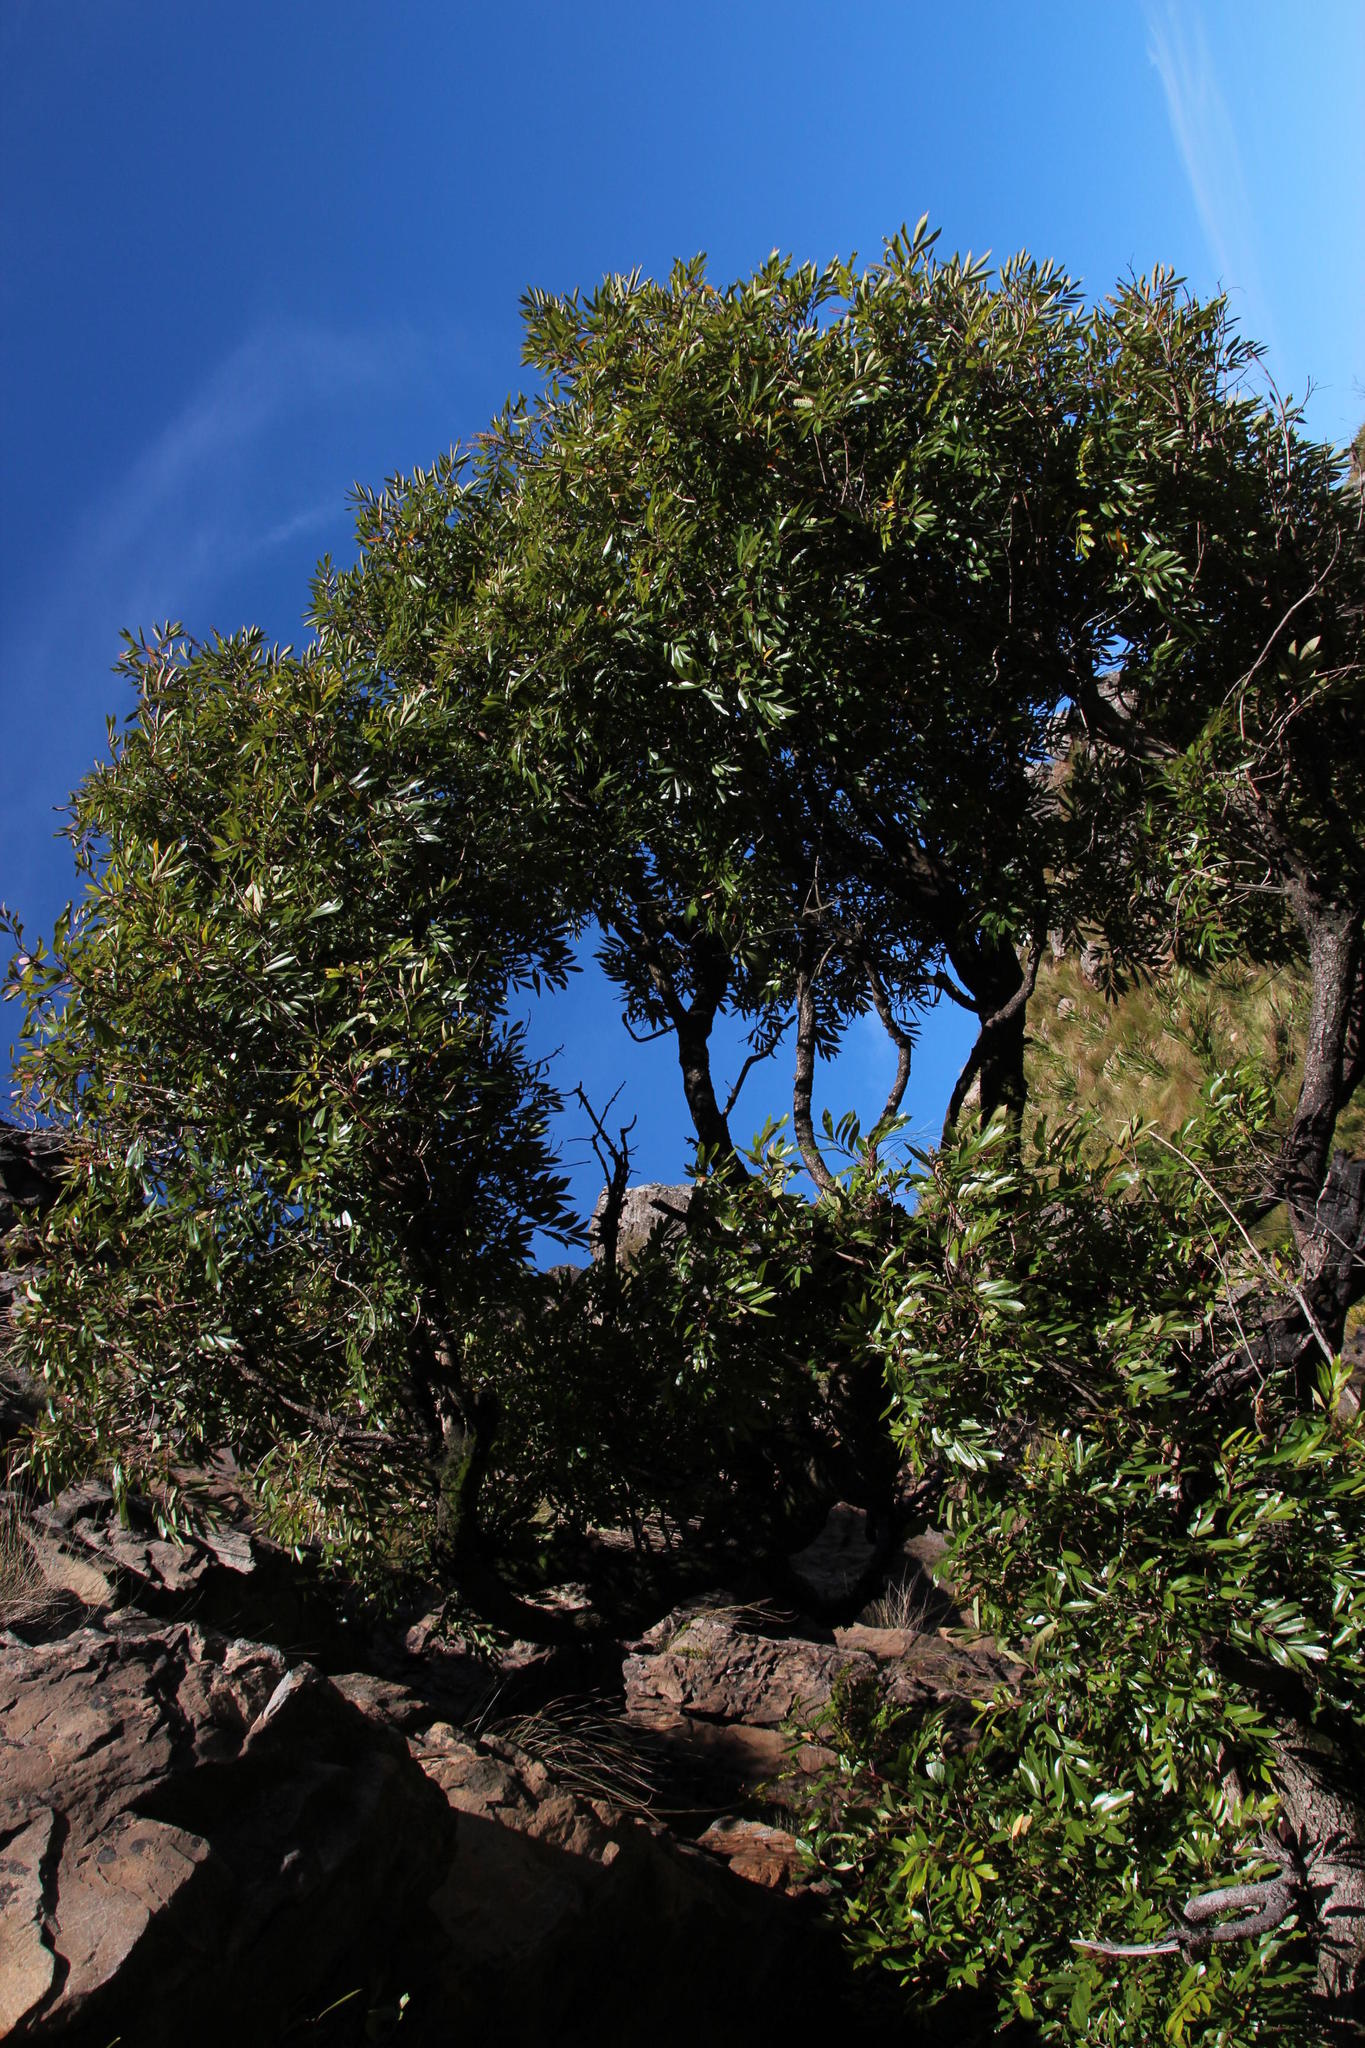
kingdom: Plantae
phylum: Tracheophyta
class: Magnoliopsida
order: Oxalidales
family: Cunoniaceae
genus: Cunonia
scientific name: Cunonia capensis
